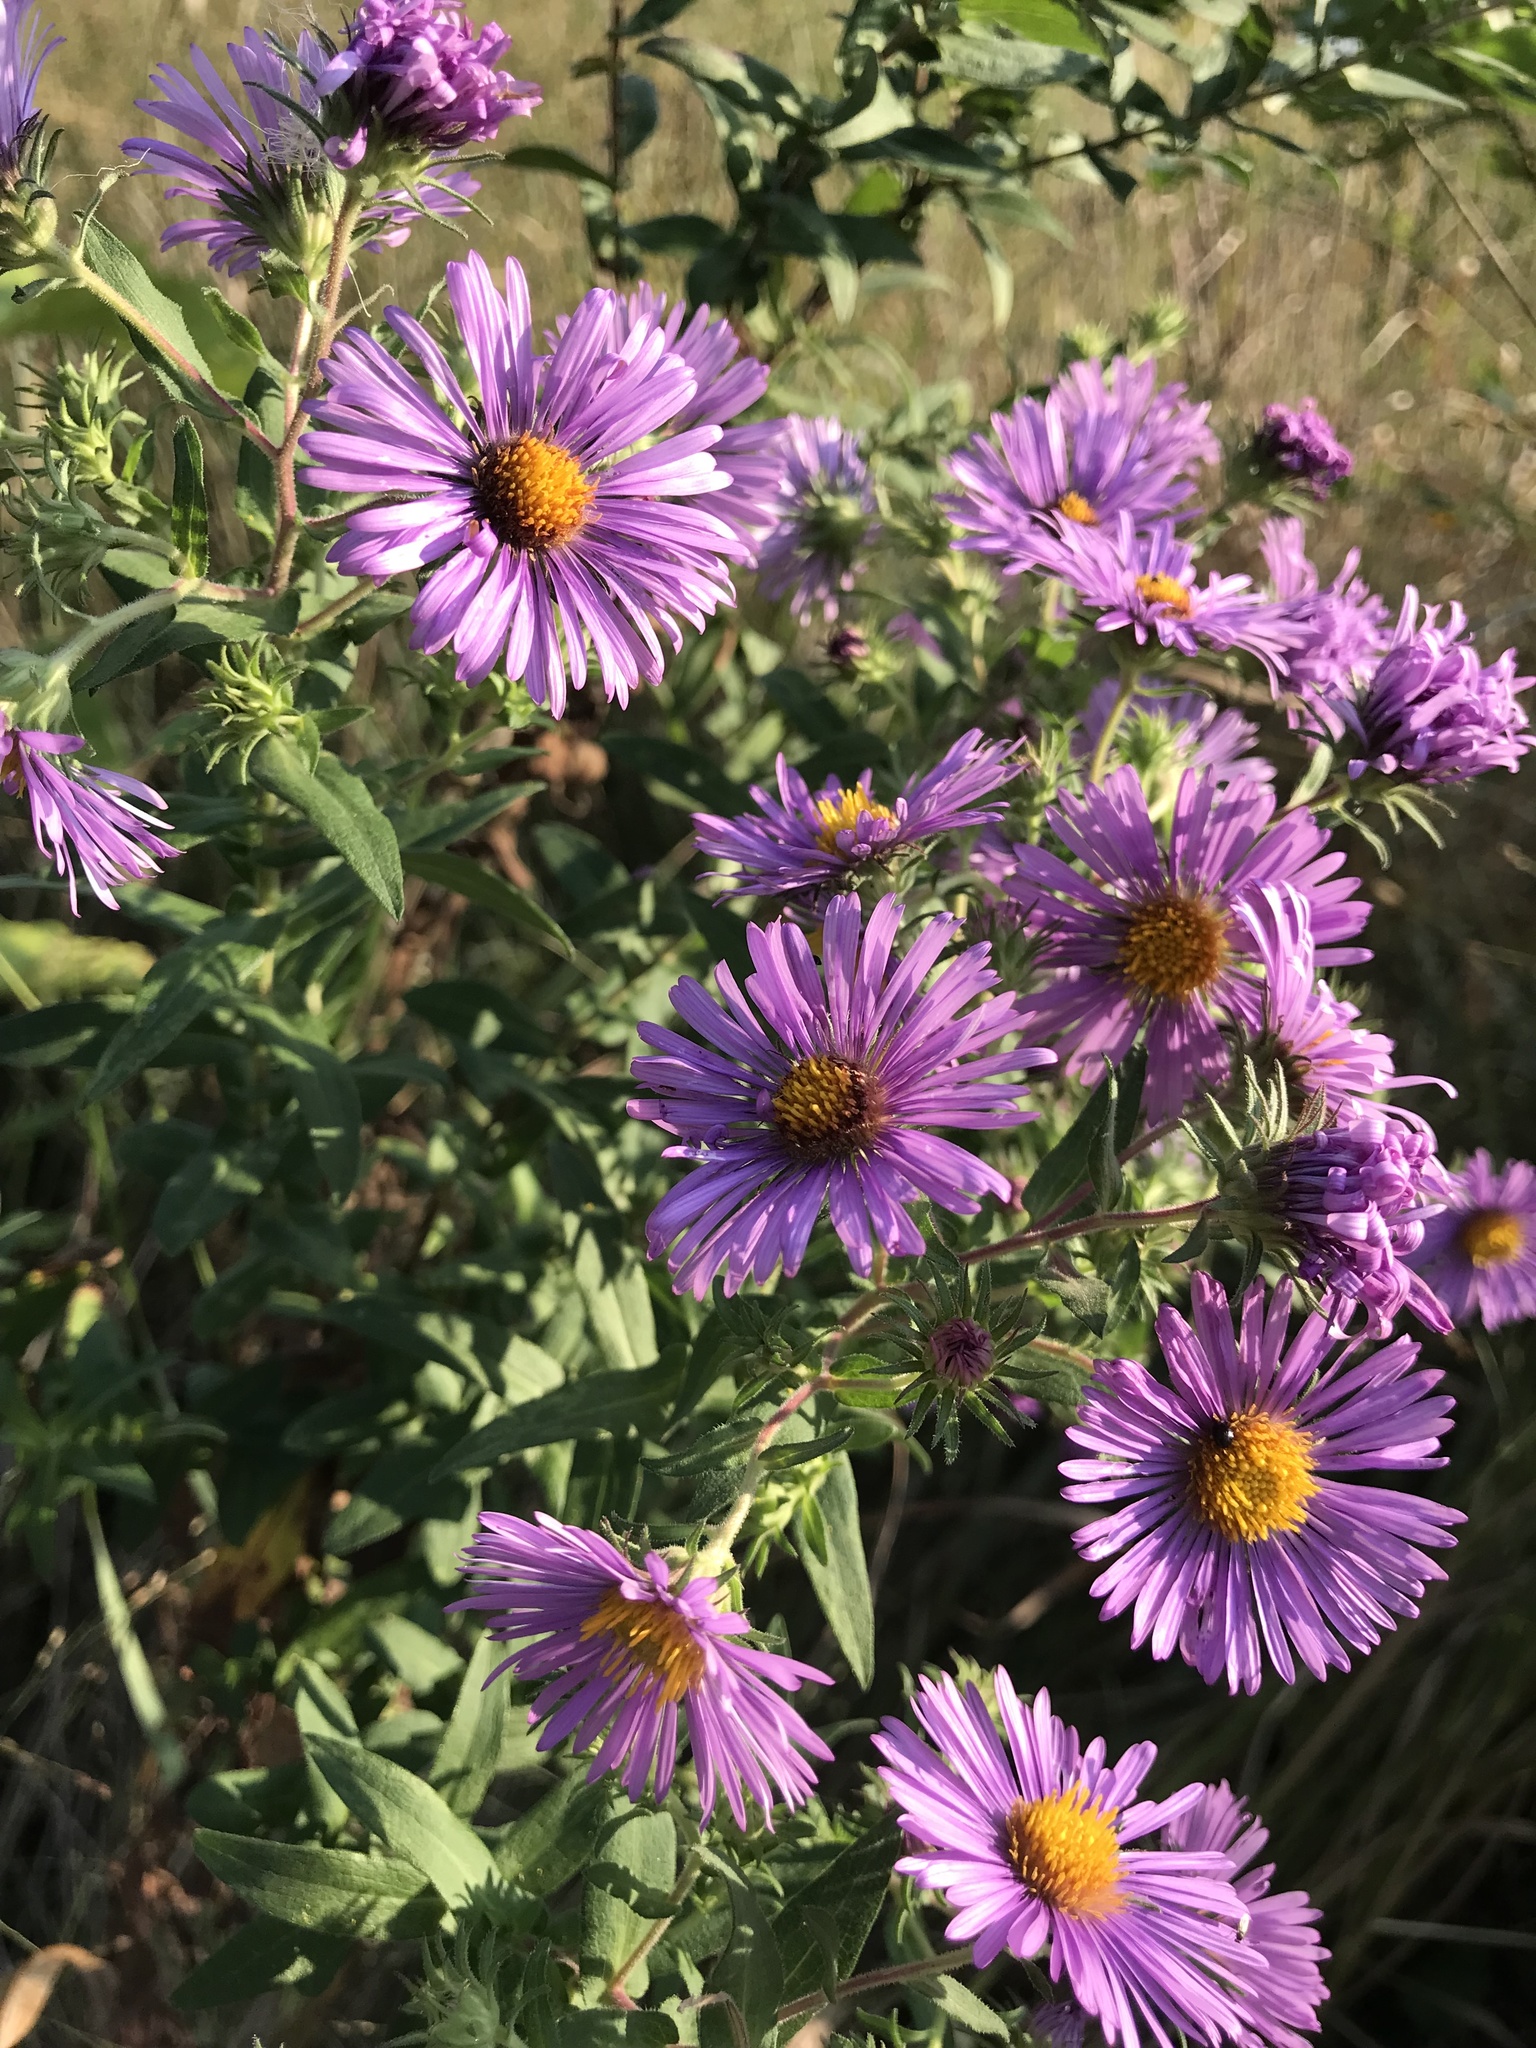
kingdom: Plantae
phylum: Tracheophyta
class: Magnoliopsida
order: Asterales
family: Asteraceae
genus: Symphyotrichum
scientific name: Symphyotrichum novae-angliae
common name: Michaelmas daisy
